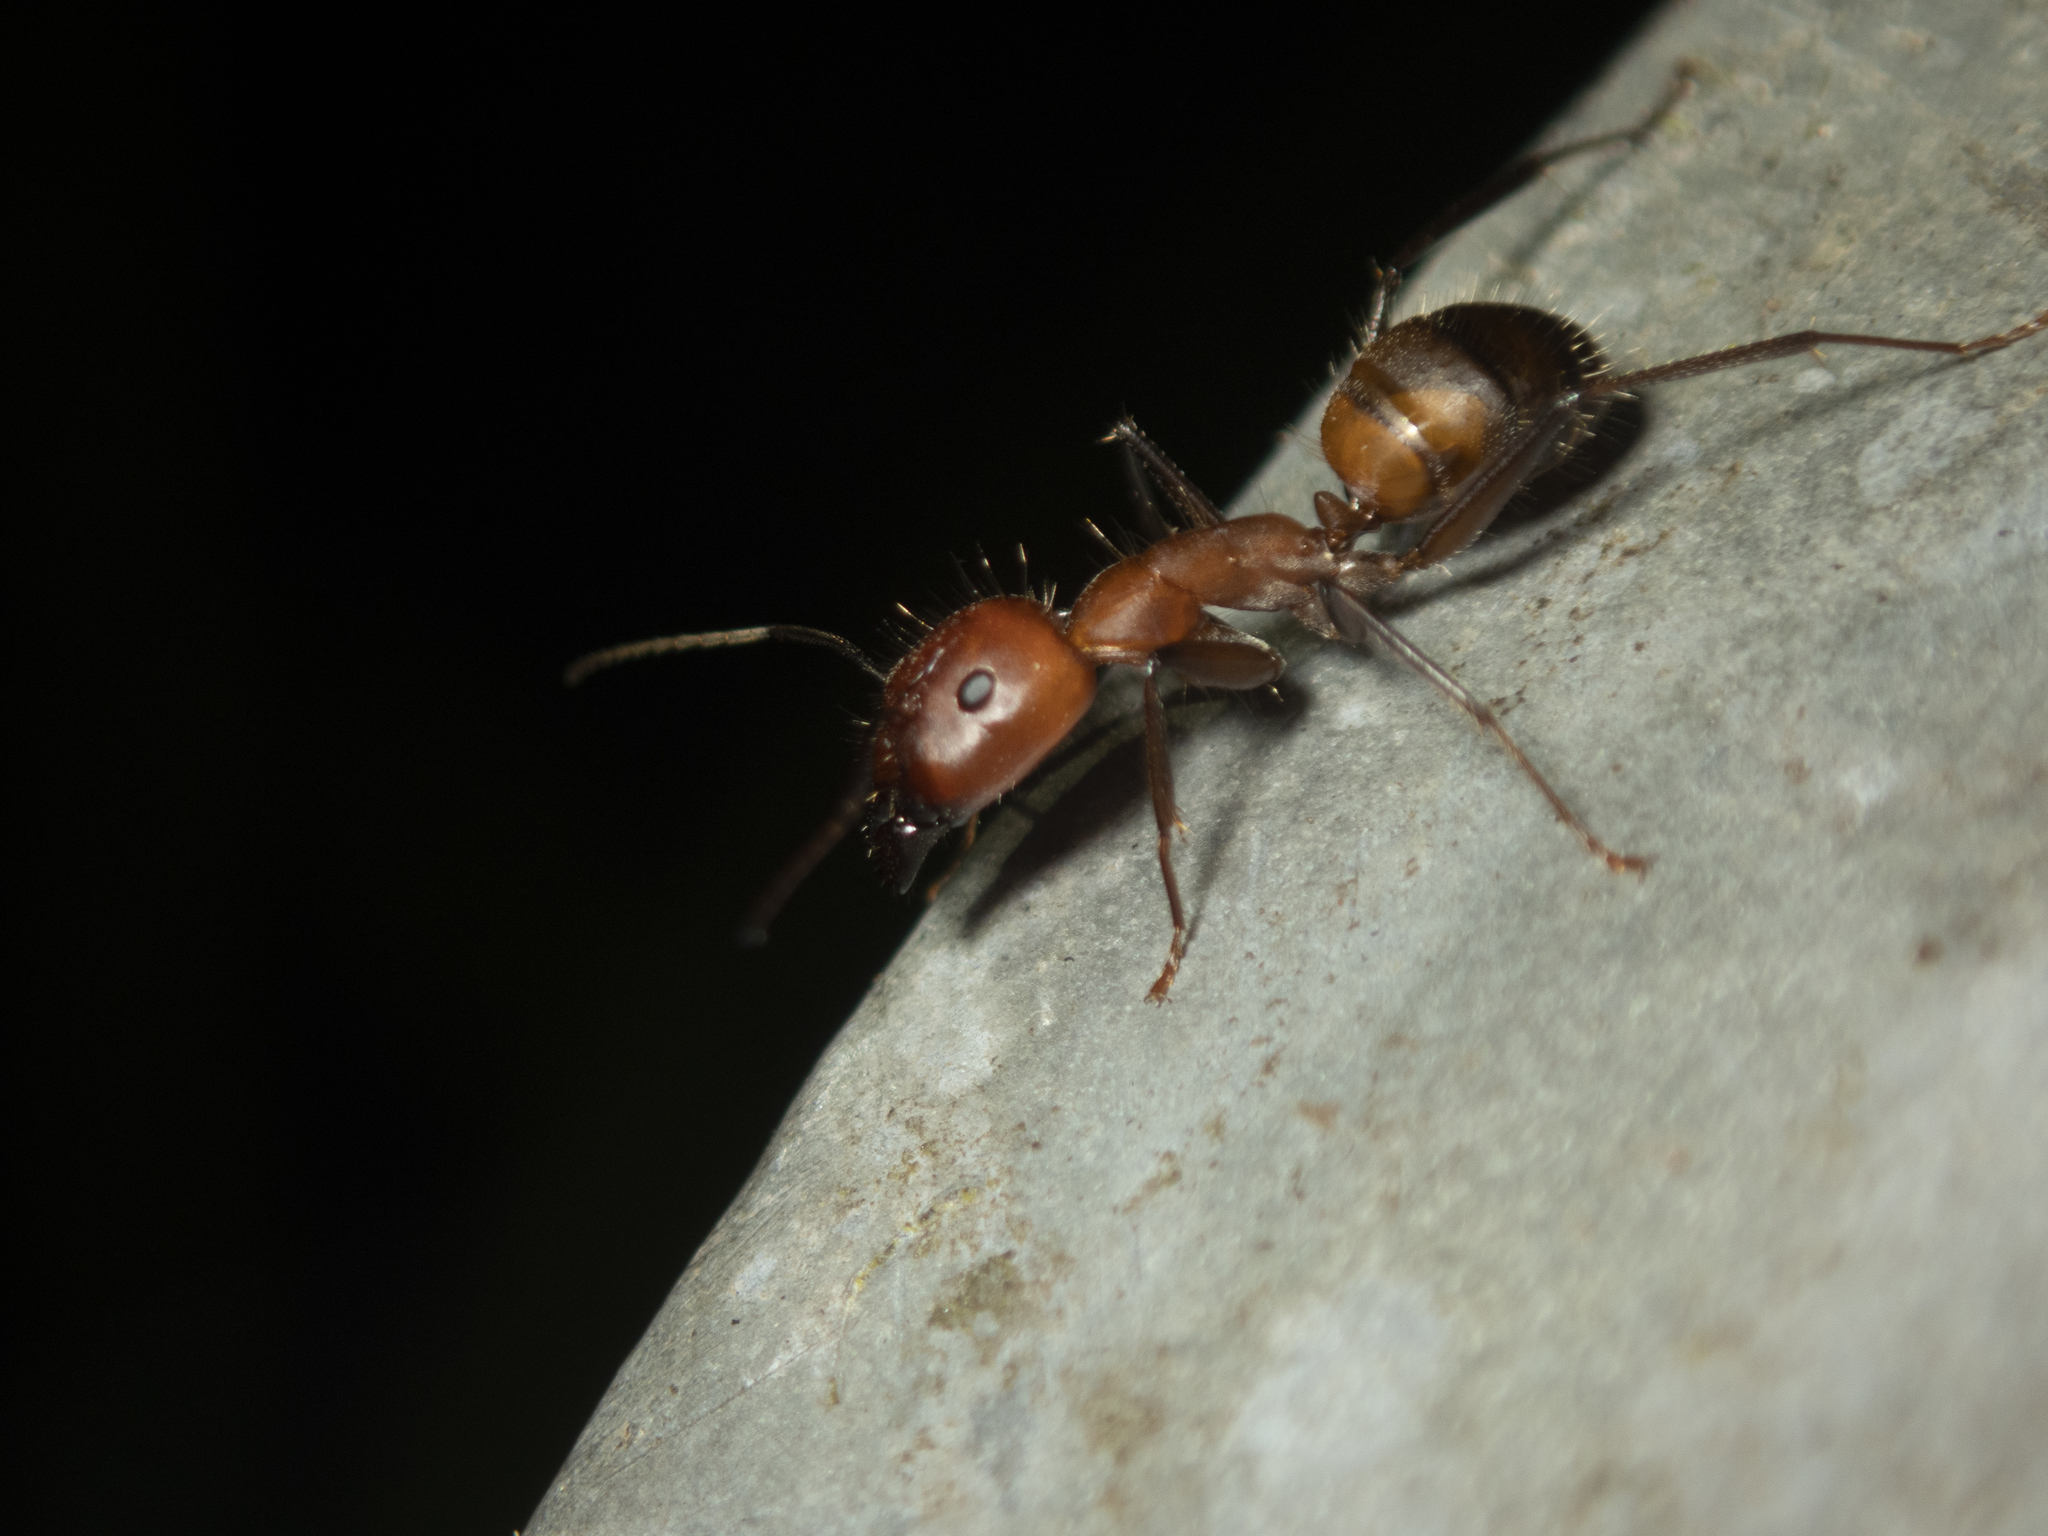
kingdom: Animalia
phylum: Arthropoda
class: Insecta
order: Hymenoptera
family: Formicidae
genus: Camponotus
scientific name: Camponotus nicobarensis
